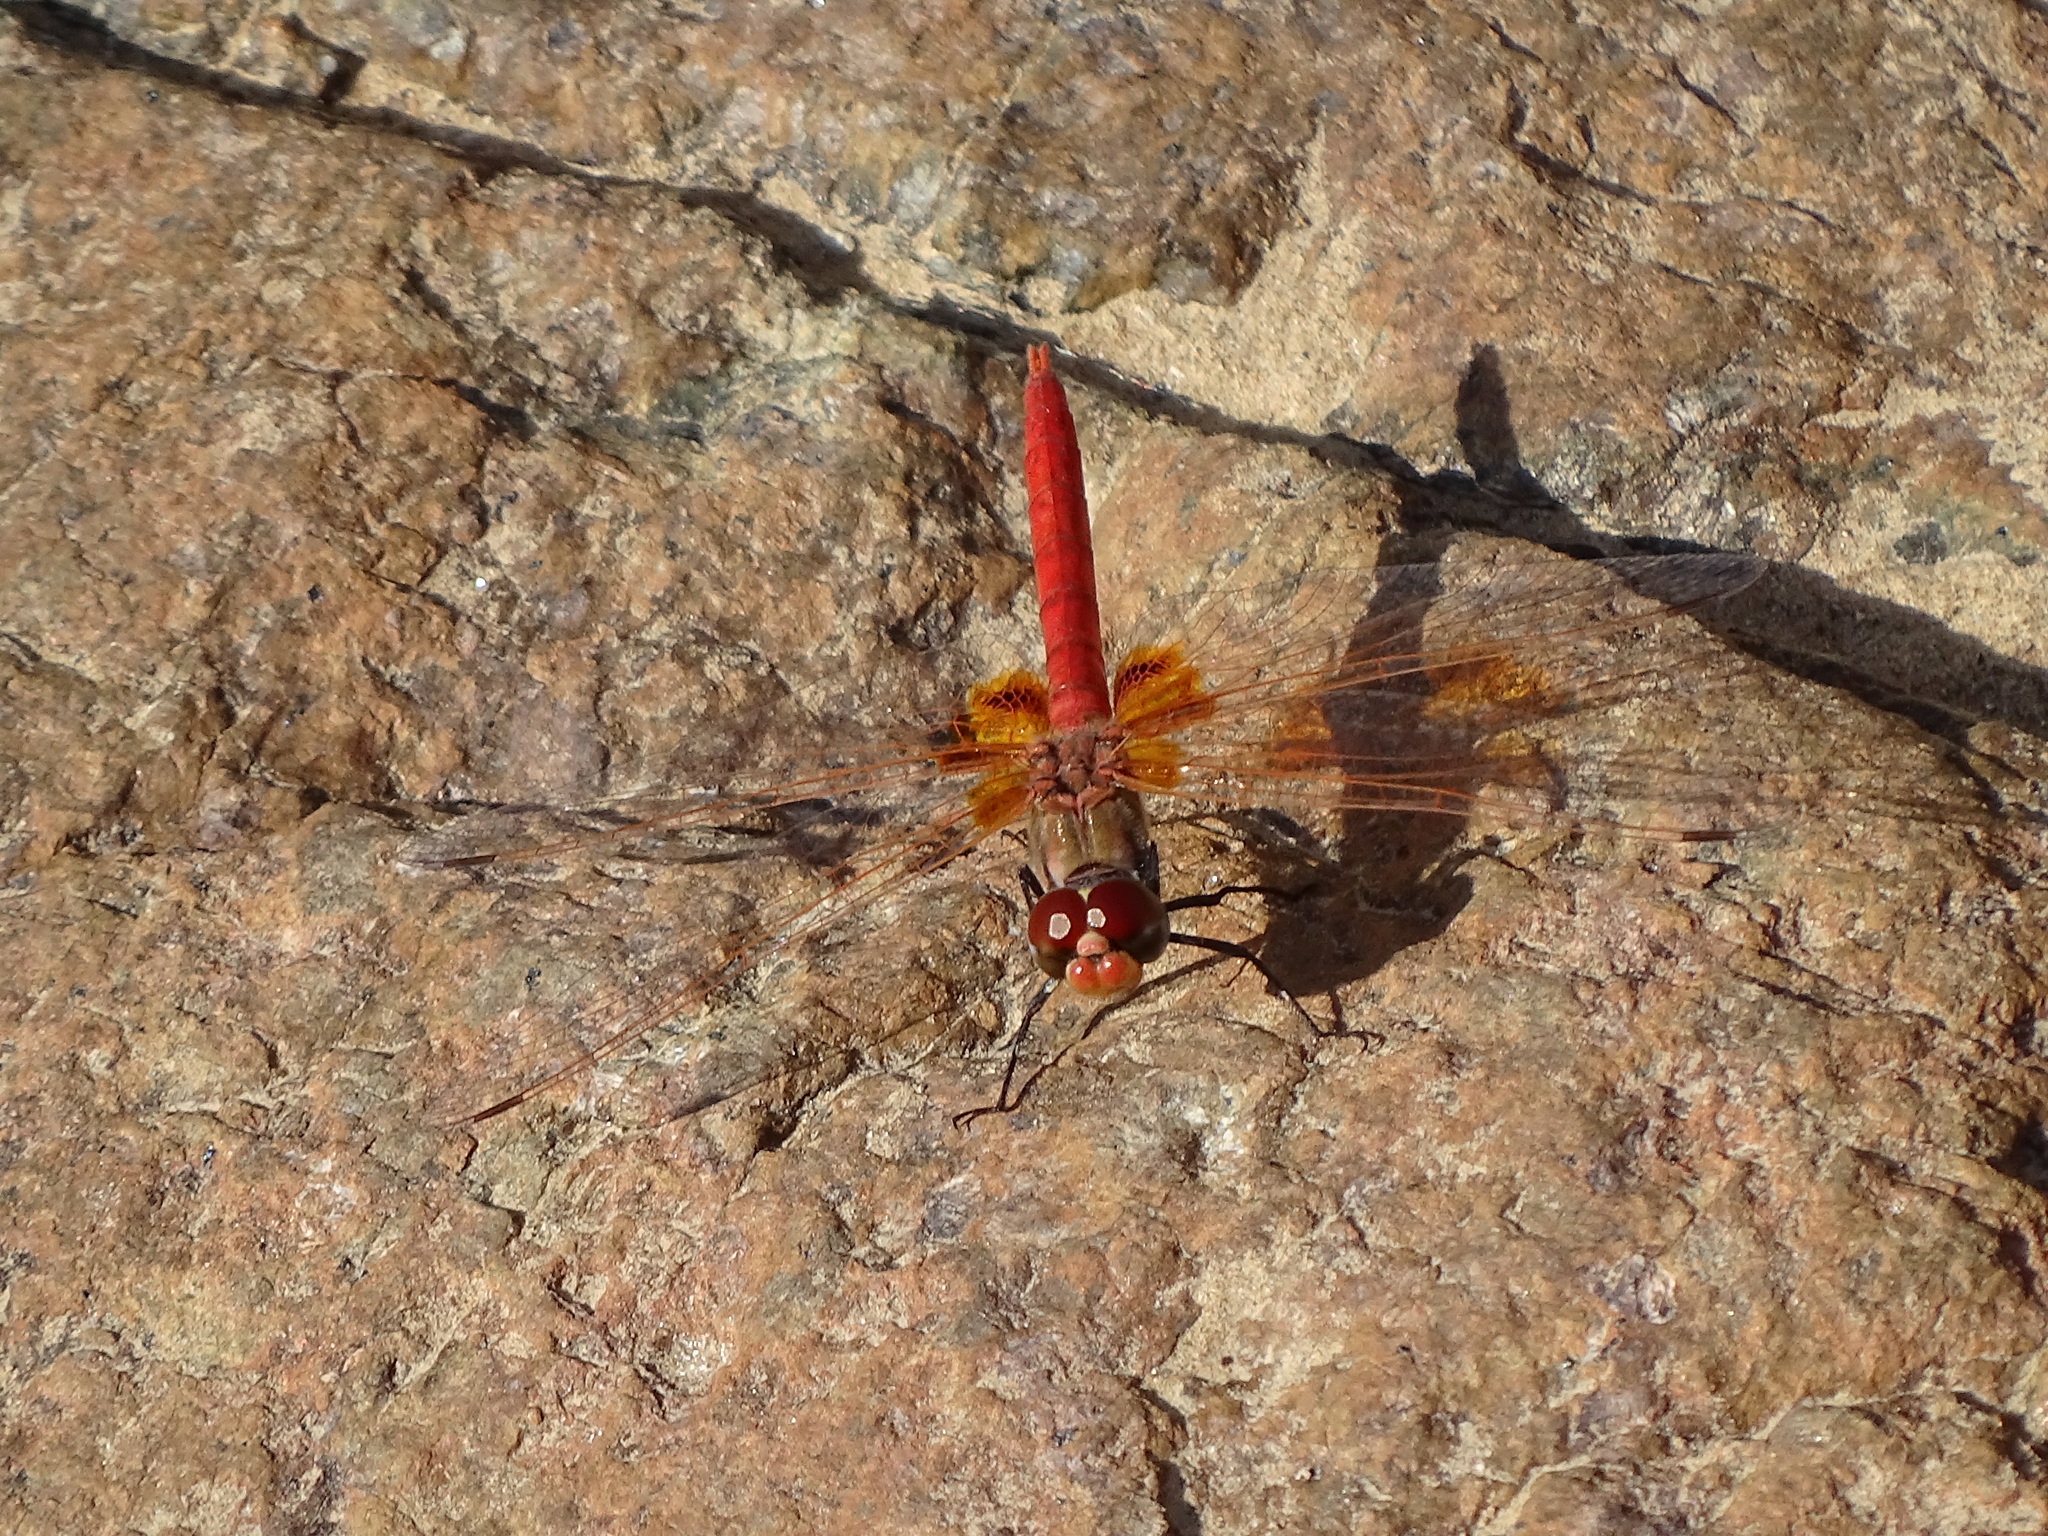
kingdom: Animalia
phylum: Arthropoda
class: Insecta
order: Odonata
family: Libellulidae
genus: Urothemis
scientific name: Urothemis thomasi
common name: Desert basker
